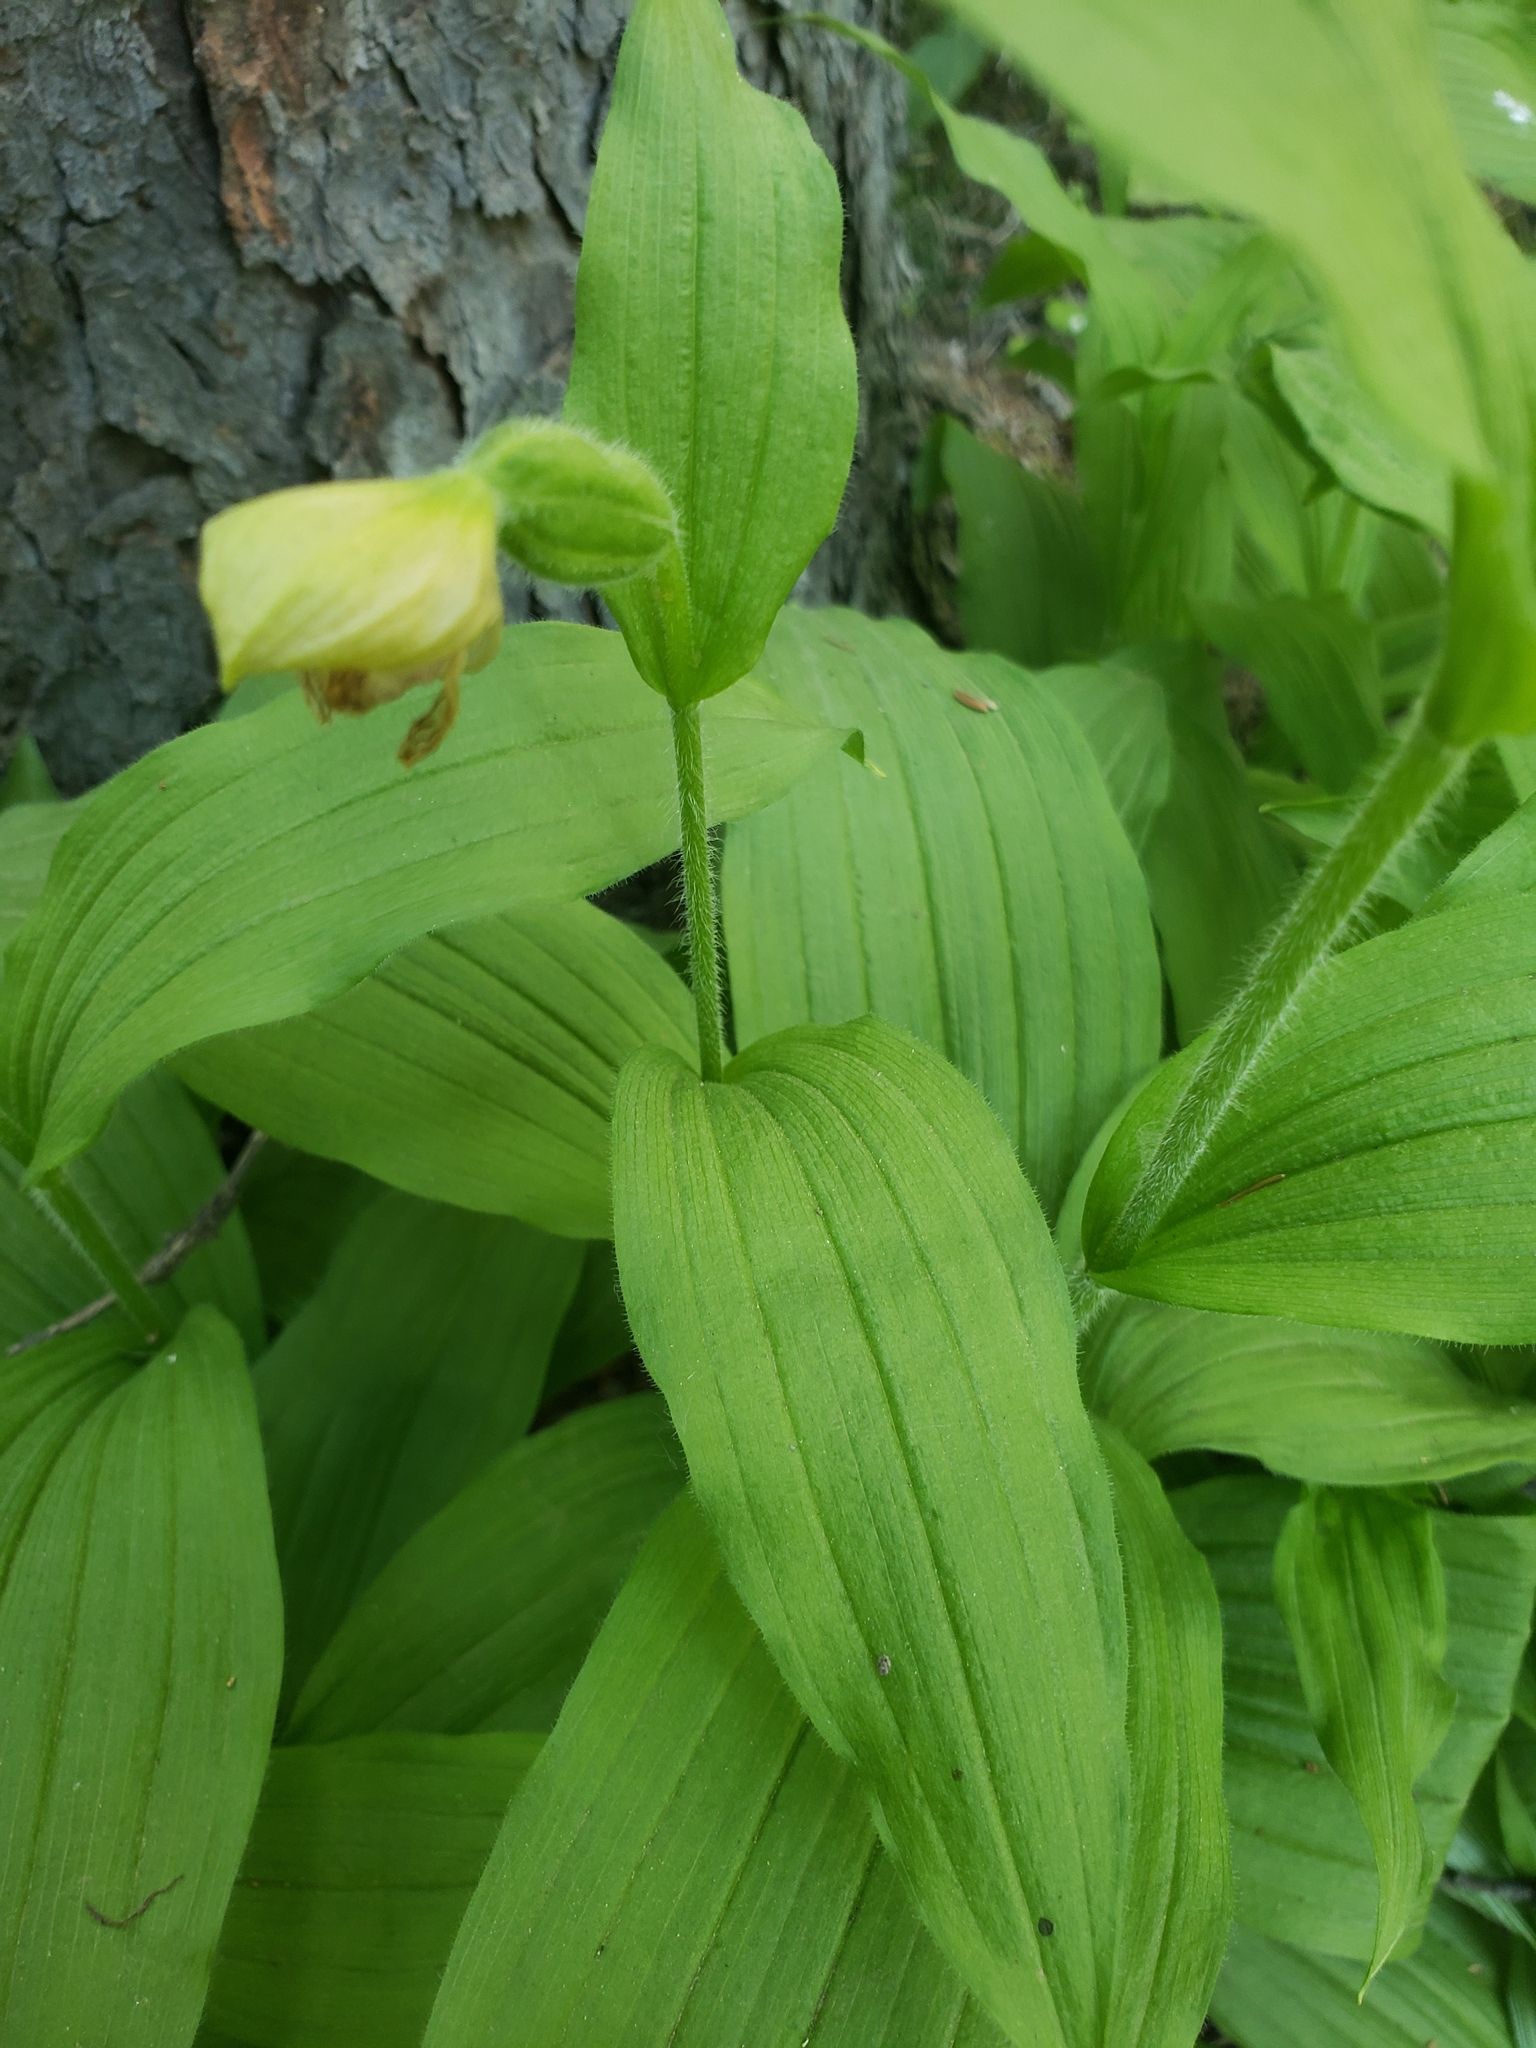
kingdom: Plantae
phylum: Tracheophyta
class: Liliopsida
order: Asparagales
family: Orchidaceae
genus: Cypripedium
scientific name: Cypripedium passerinum
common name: Sparrow's-egg lady's-slipper
